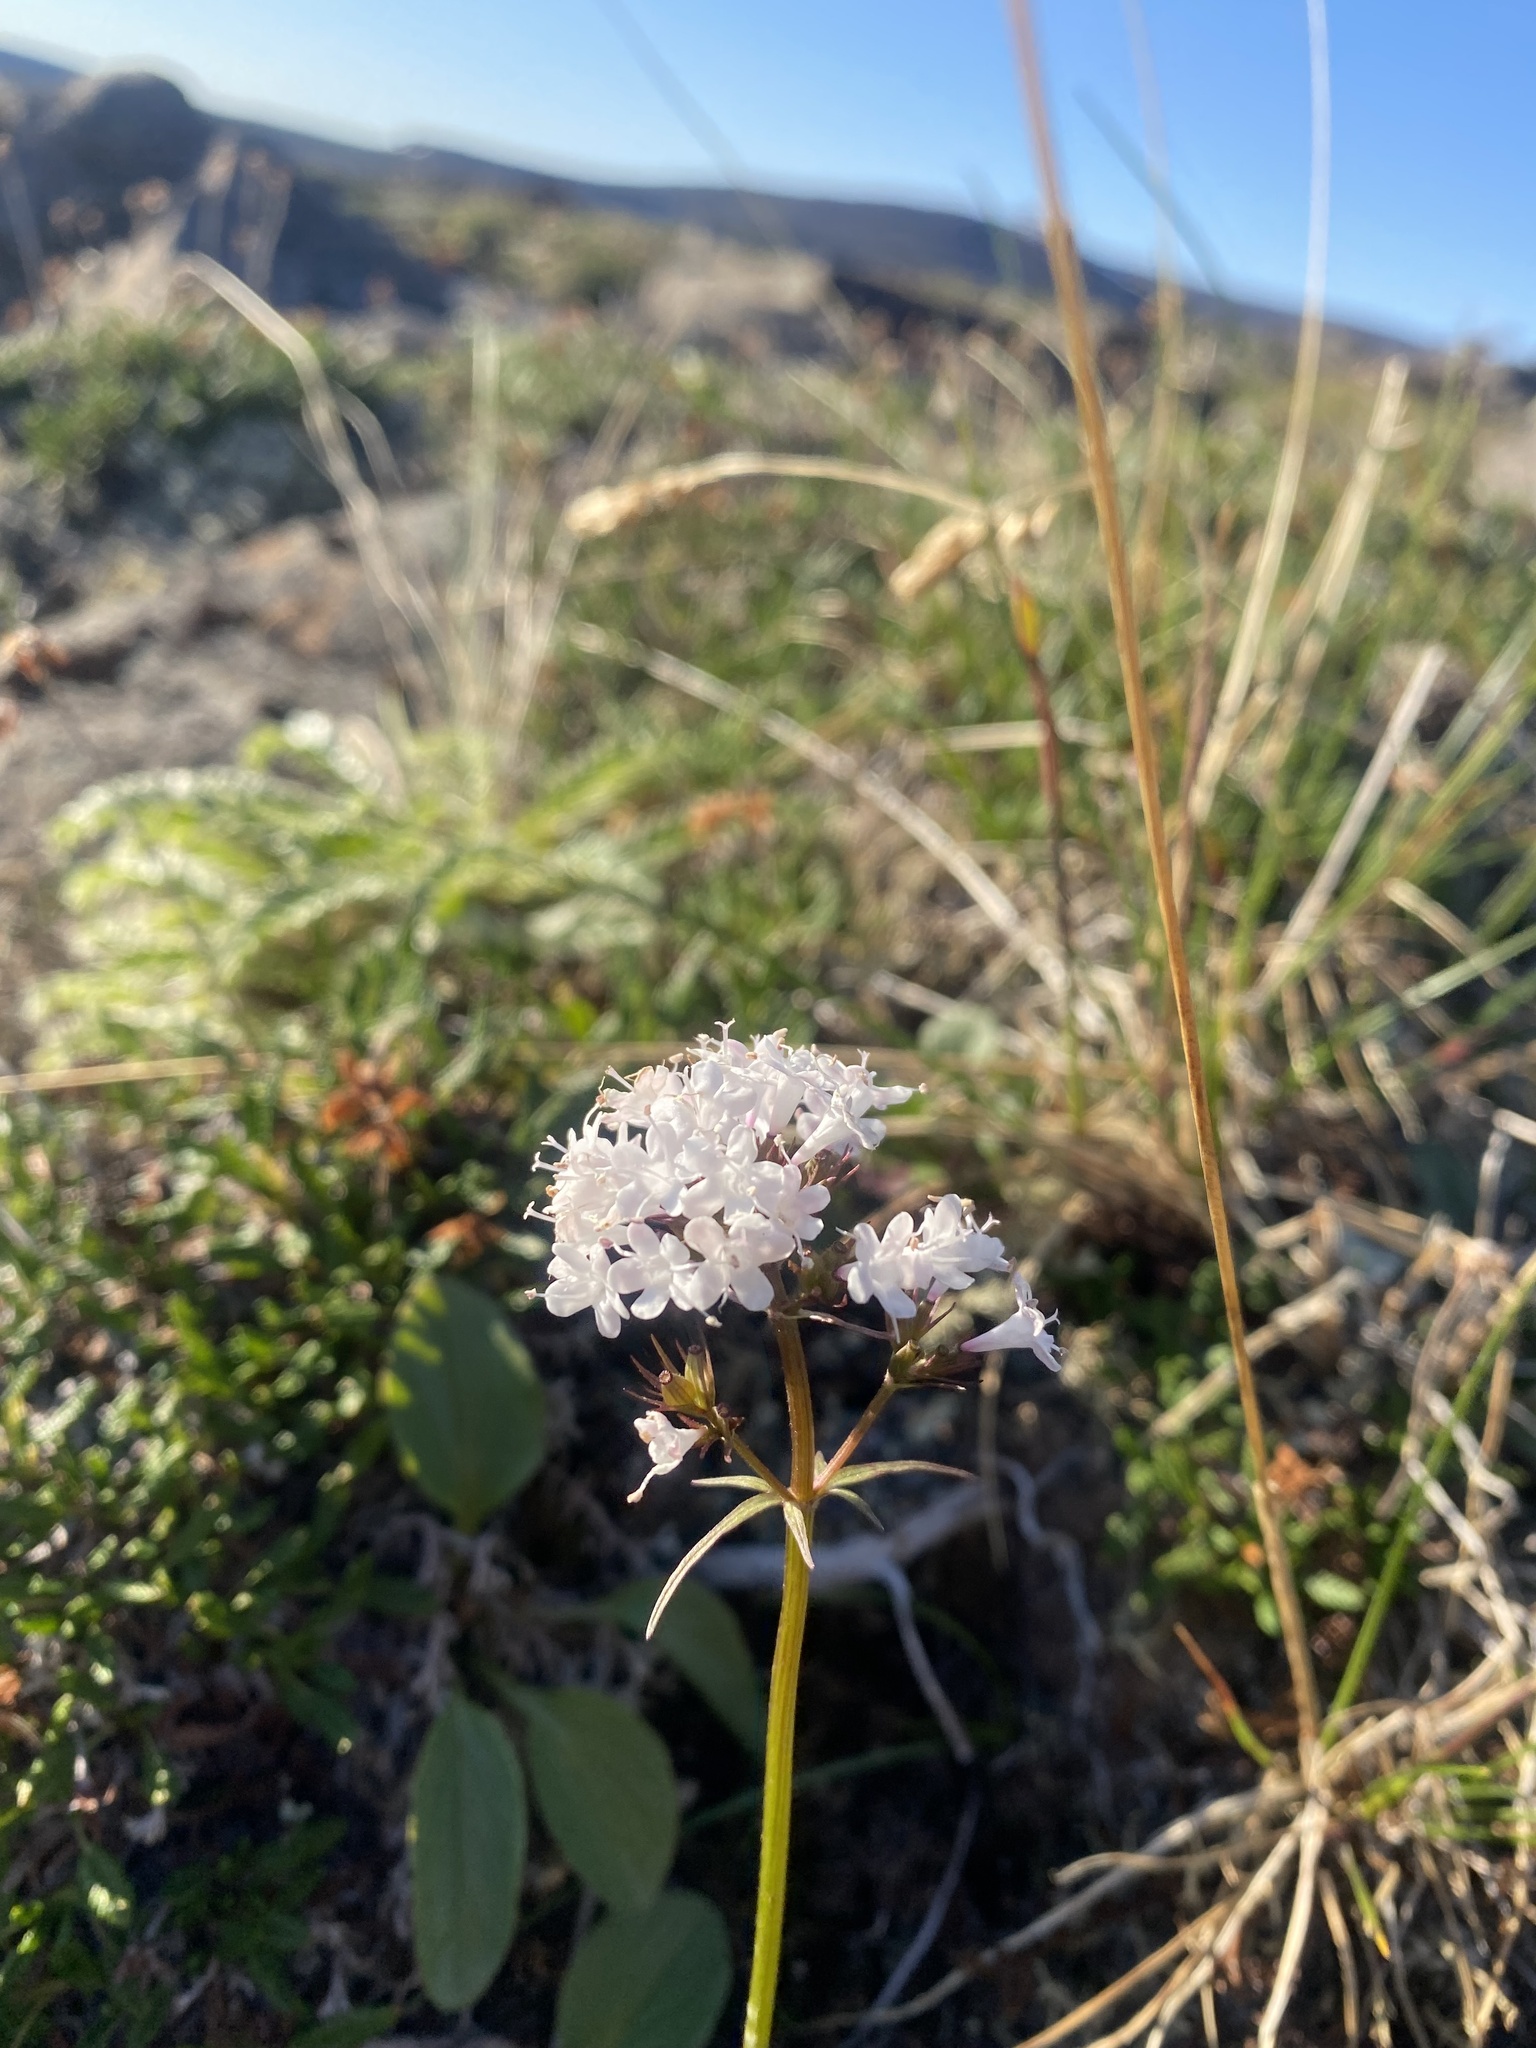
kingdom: Plantae
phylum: Tracheophyta
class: Magnoliopsida
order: Dipsacales
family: Caprifoliaceae
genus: Valeriana
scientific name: Valeriana capitata
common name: Capitate valerian
